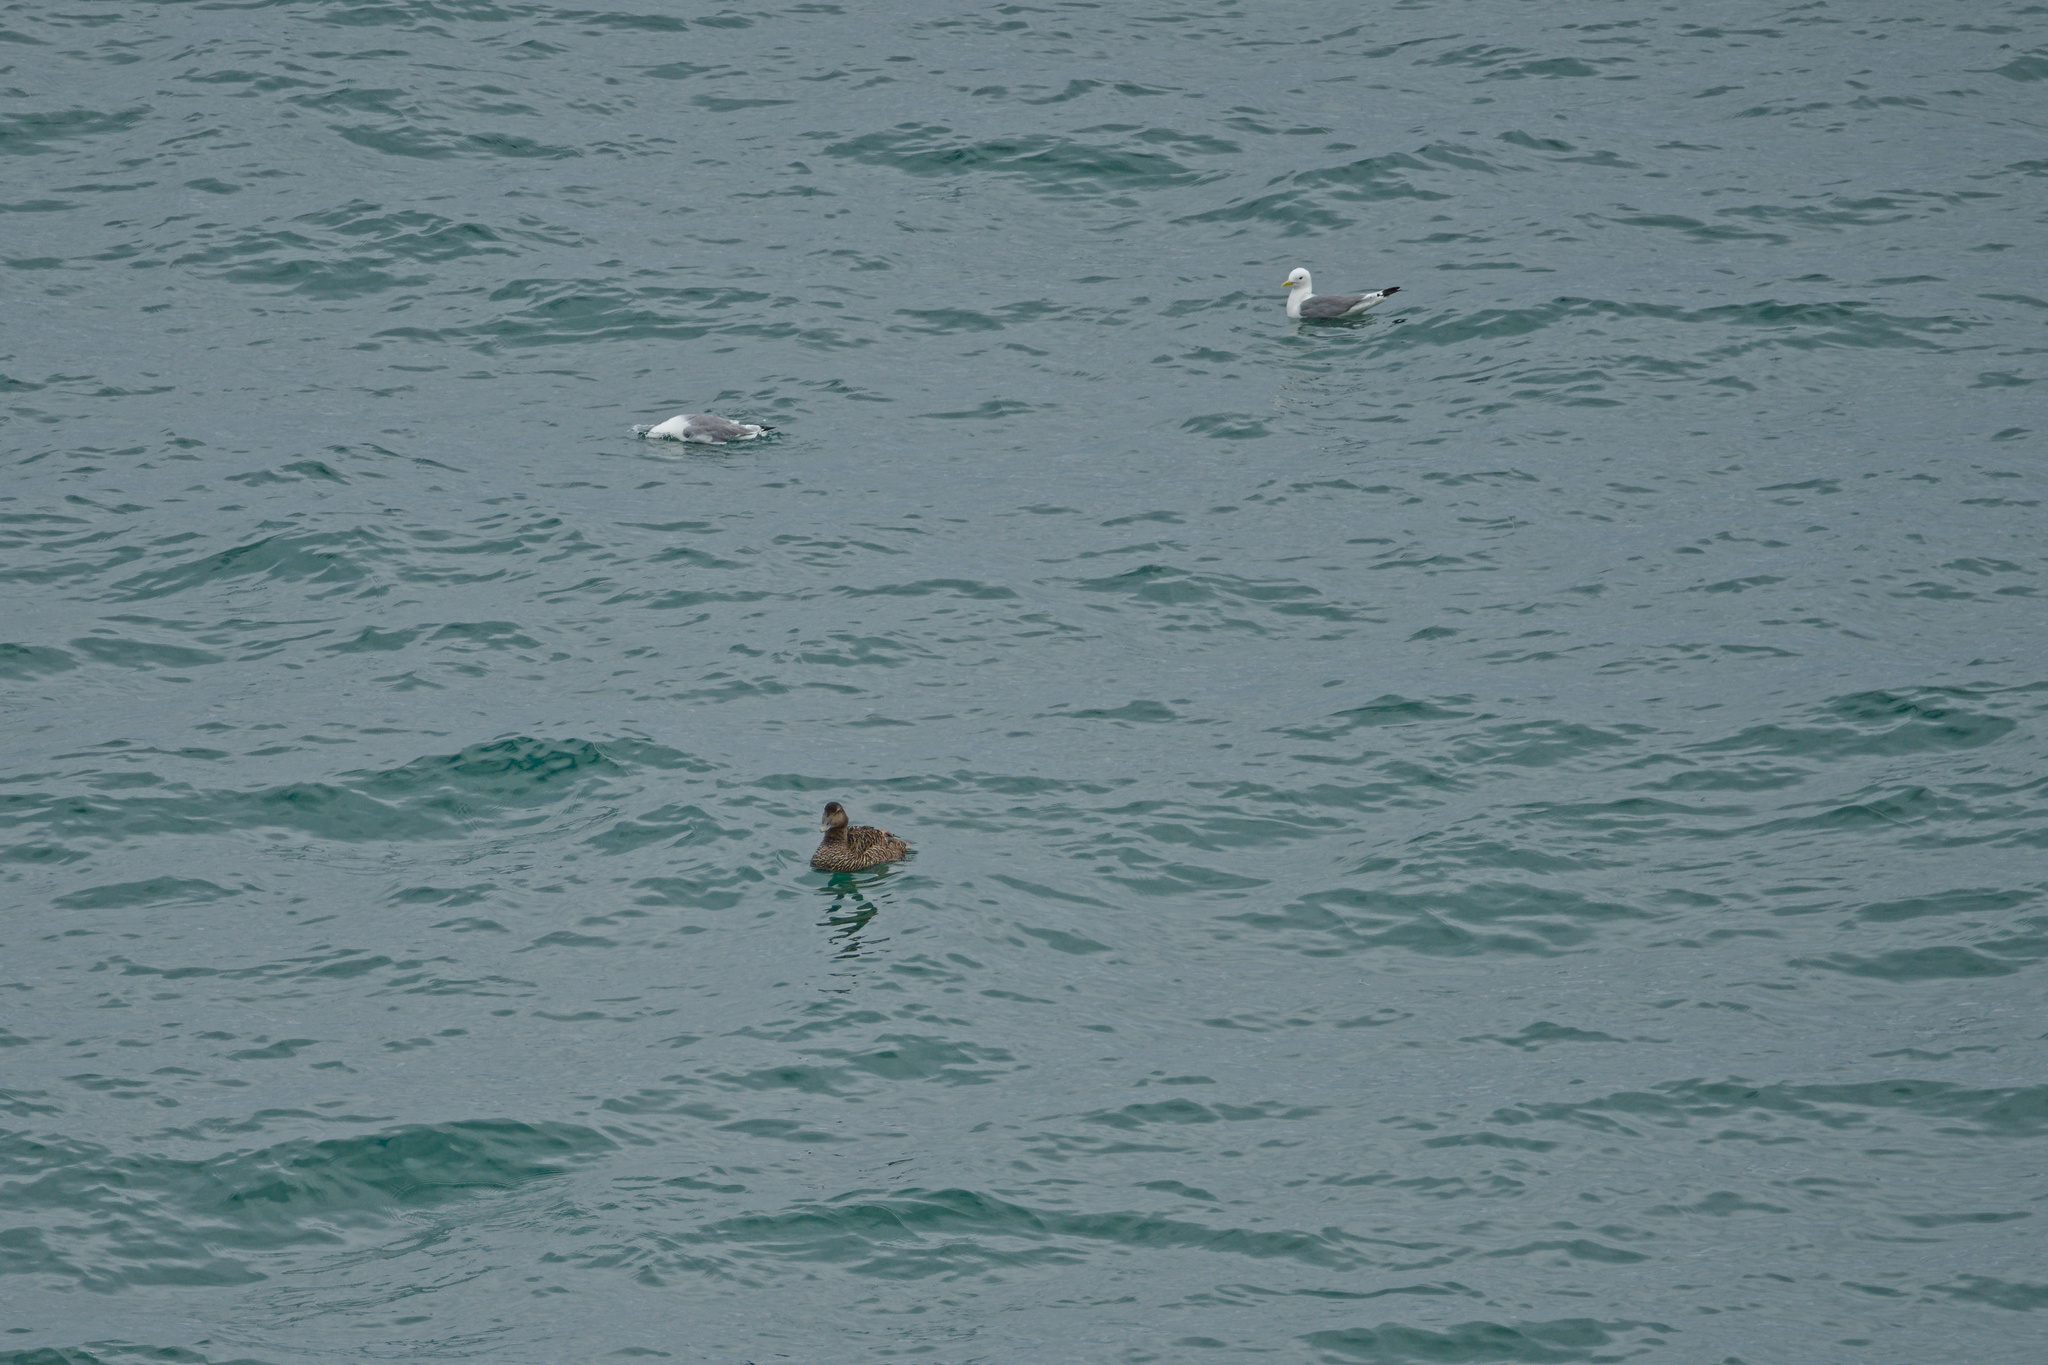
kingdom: Animalia
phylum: Chordata
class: Aves
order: Charadriiformes
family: Laridae
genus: Rissa
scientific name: Rissa tridactyla
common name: Black-legged kittiwake
